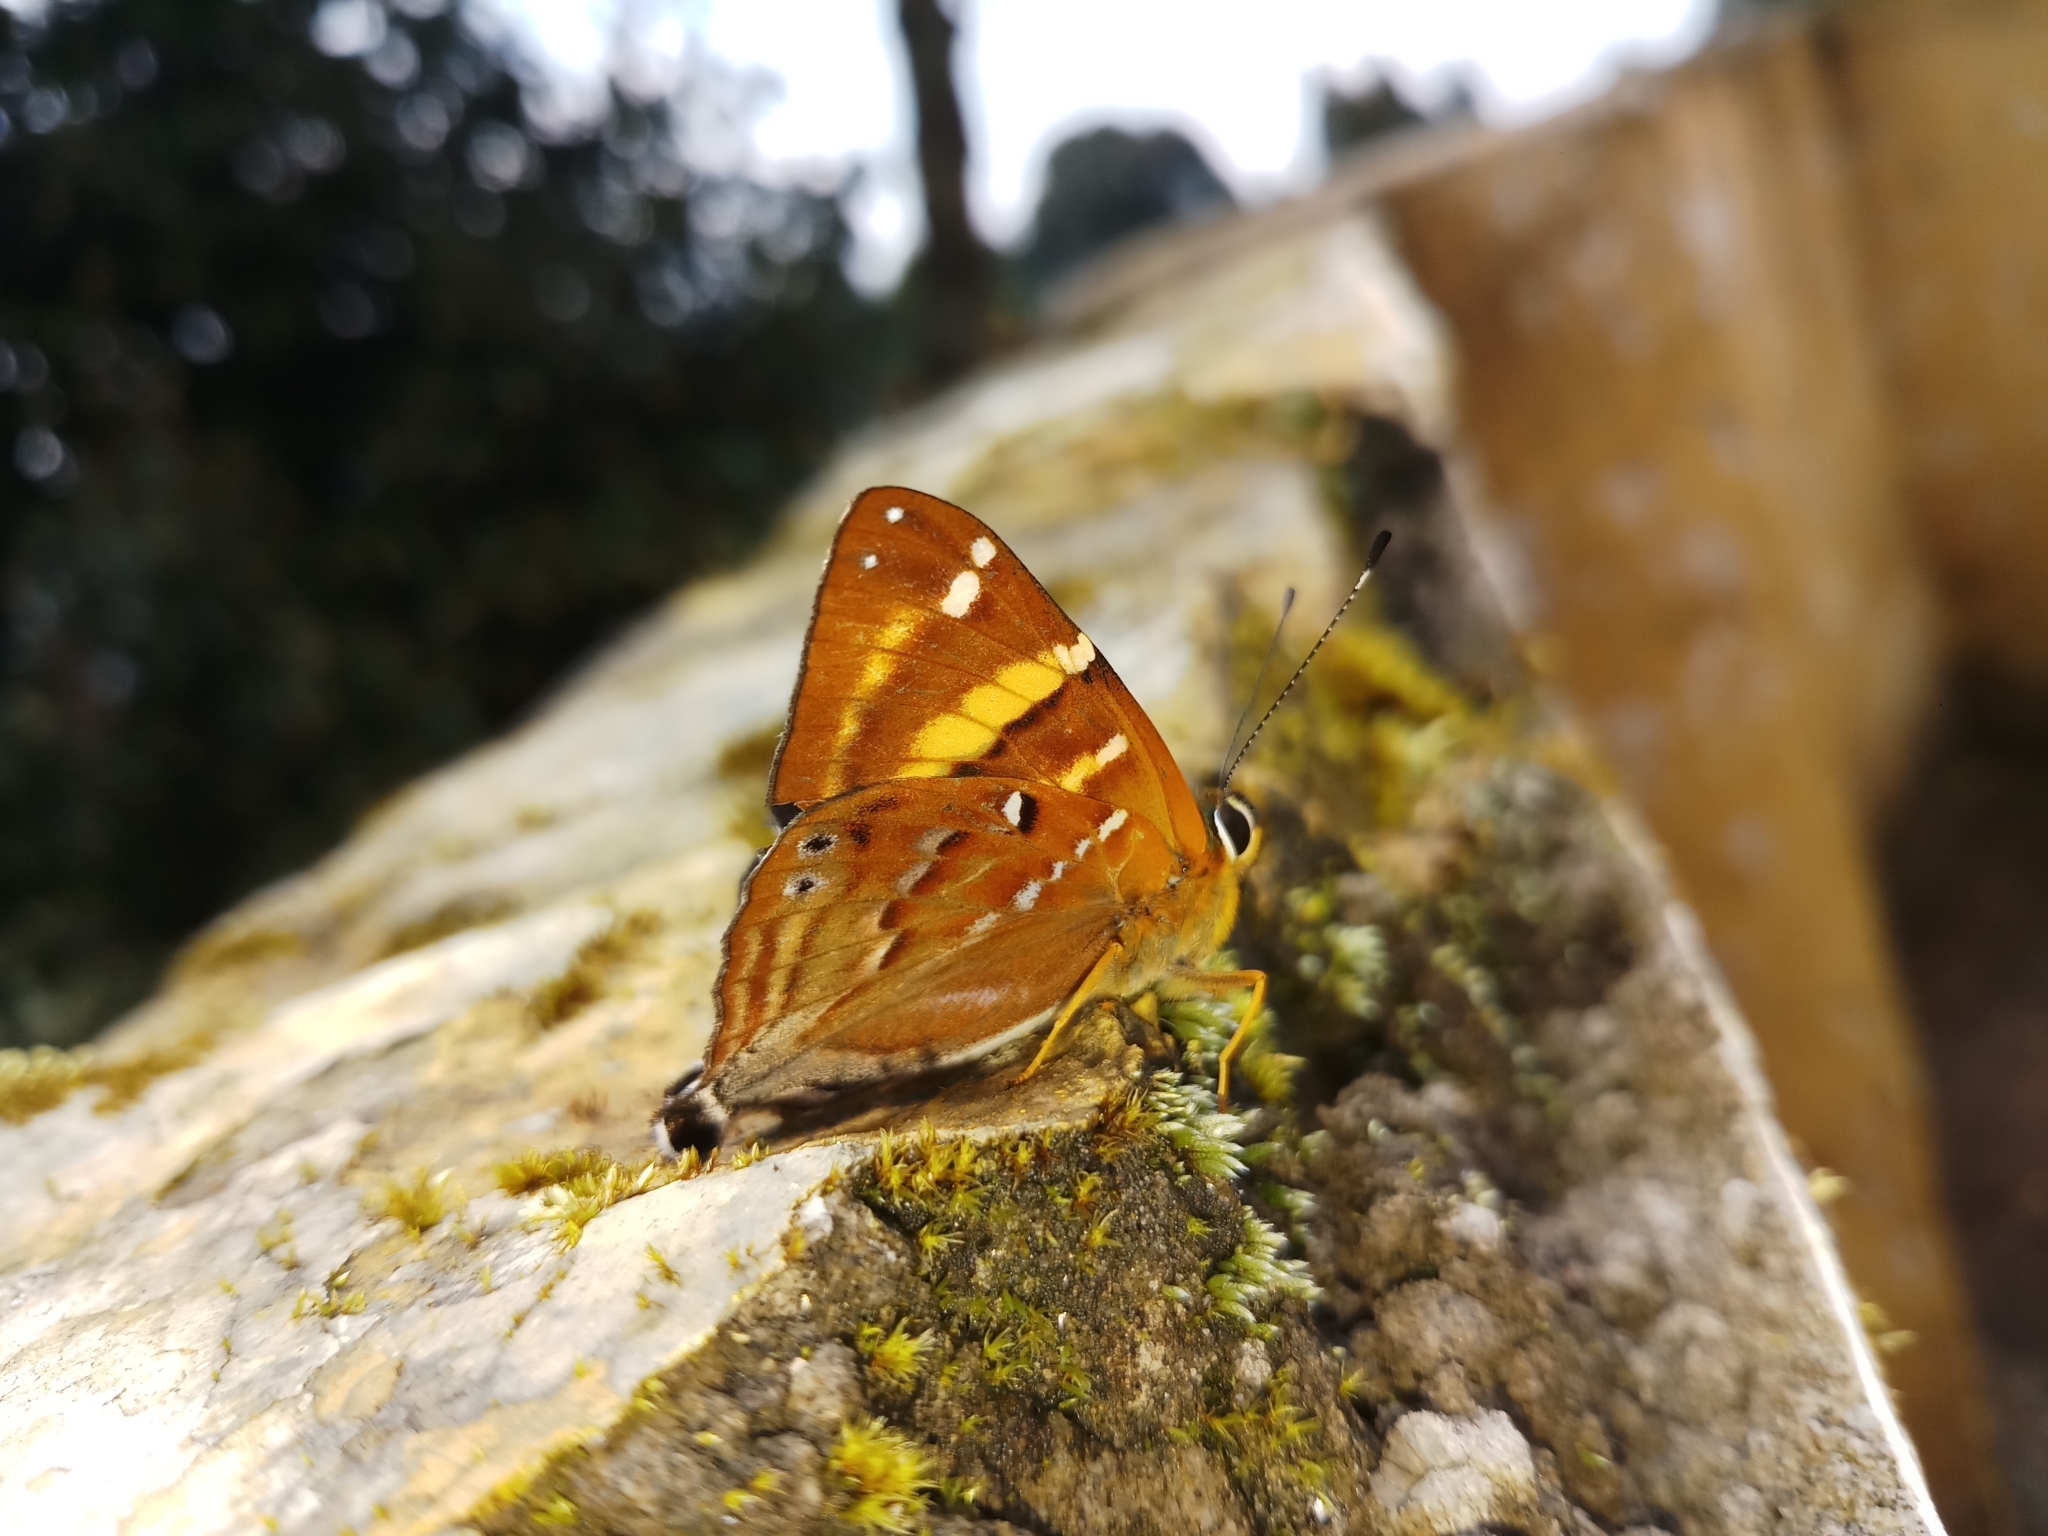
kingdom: Animalia
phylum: Arthropoda
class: Insecta
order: Lepidoptera
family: Lycaenidae
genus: Dodona
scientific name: Dodona ouida
